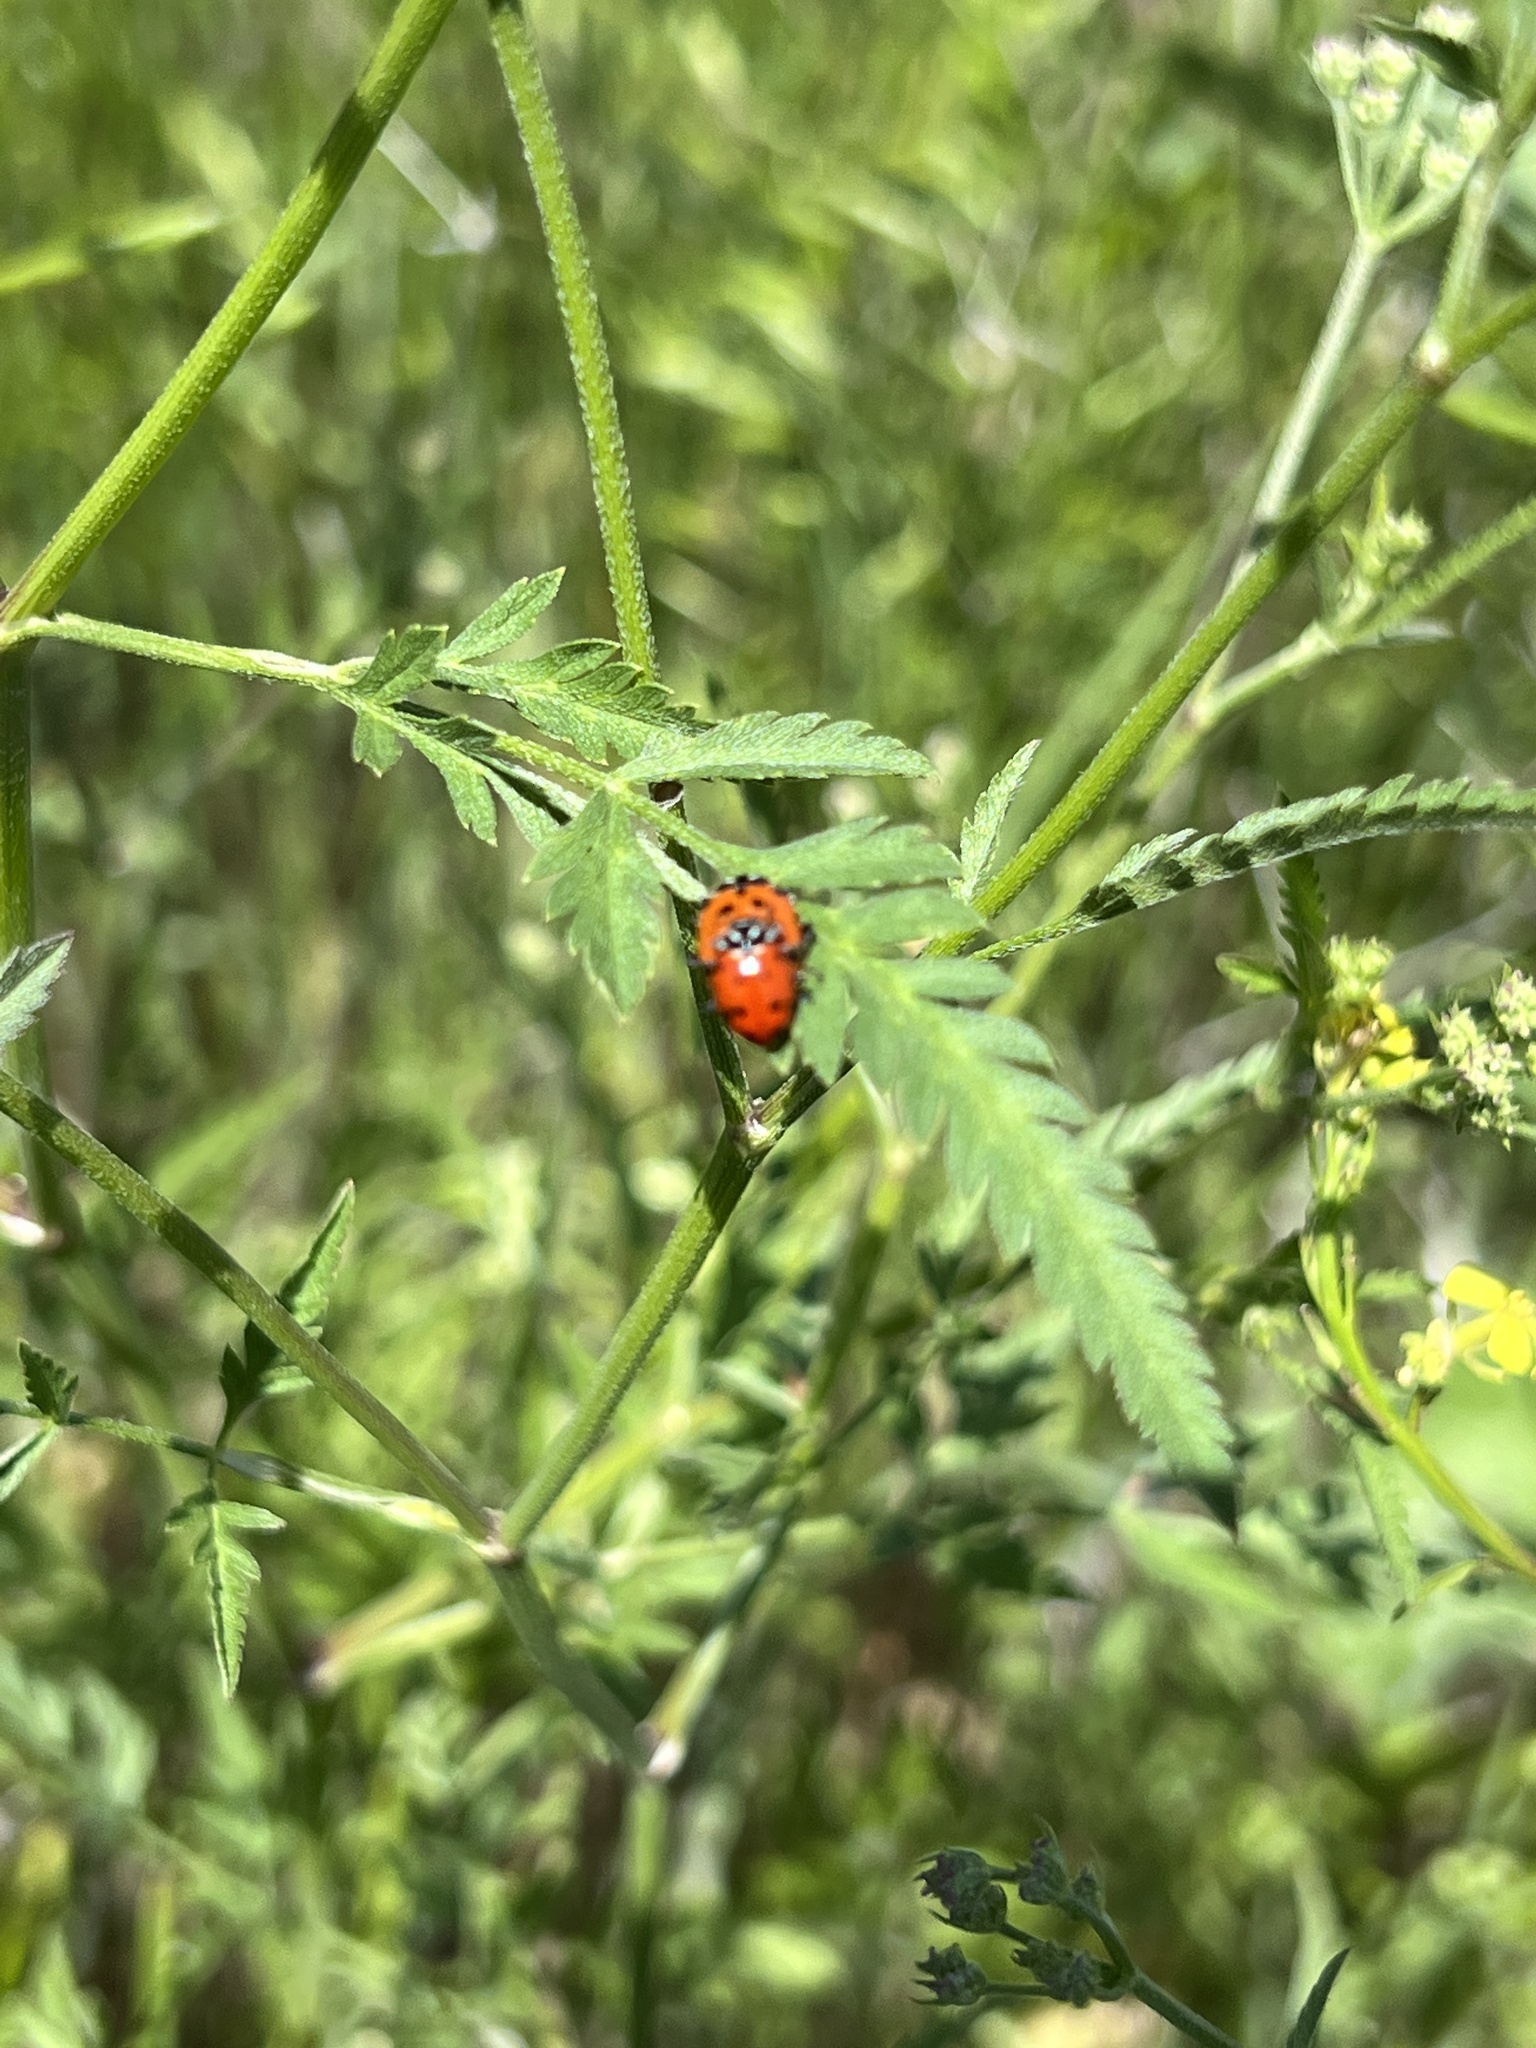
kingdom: Animalia
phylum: Arthropoda
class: Insecta
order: Coleoptera
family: Coccinellidae
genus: Hippodamia
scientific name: Hippodamia convergens
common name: Convergent lady beetle
